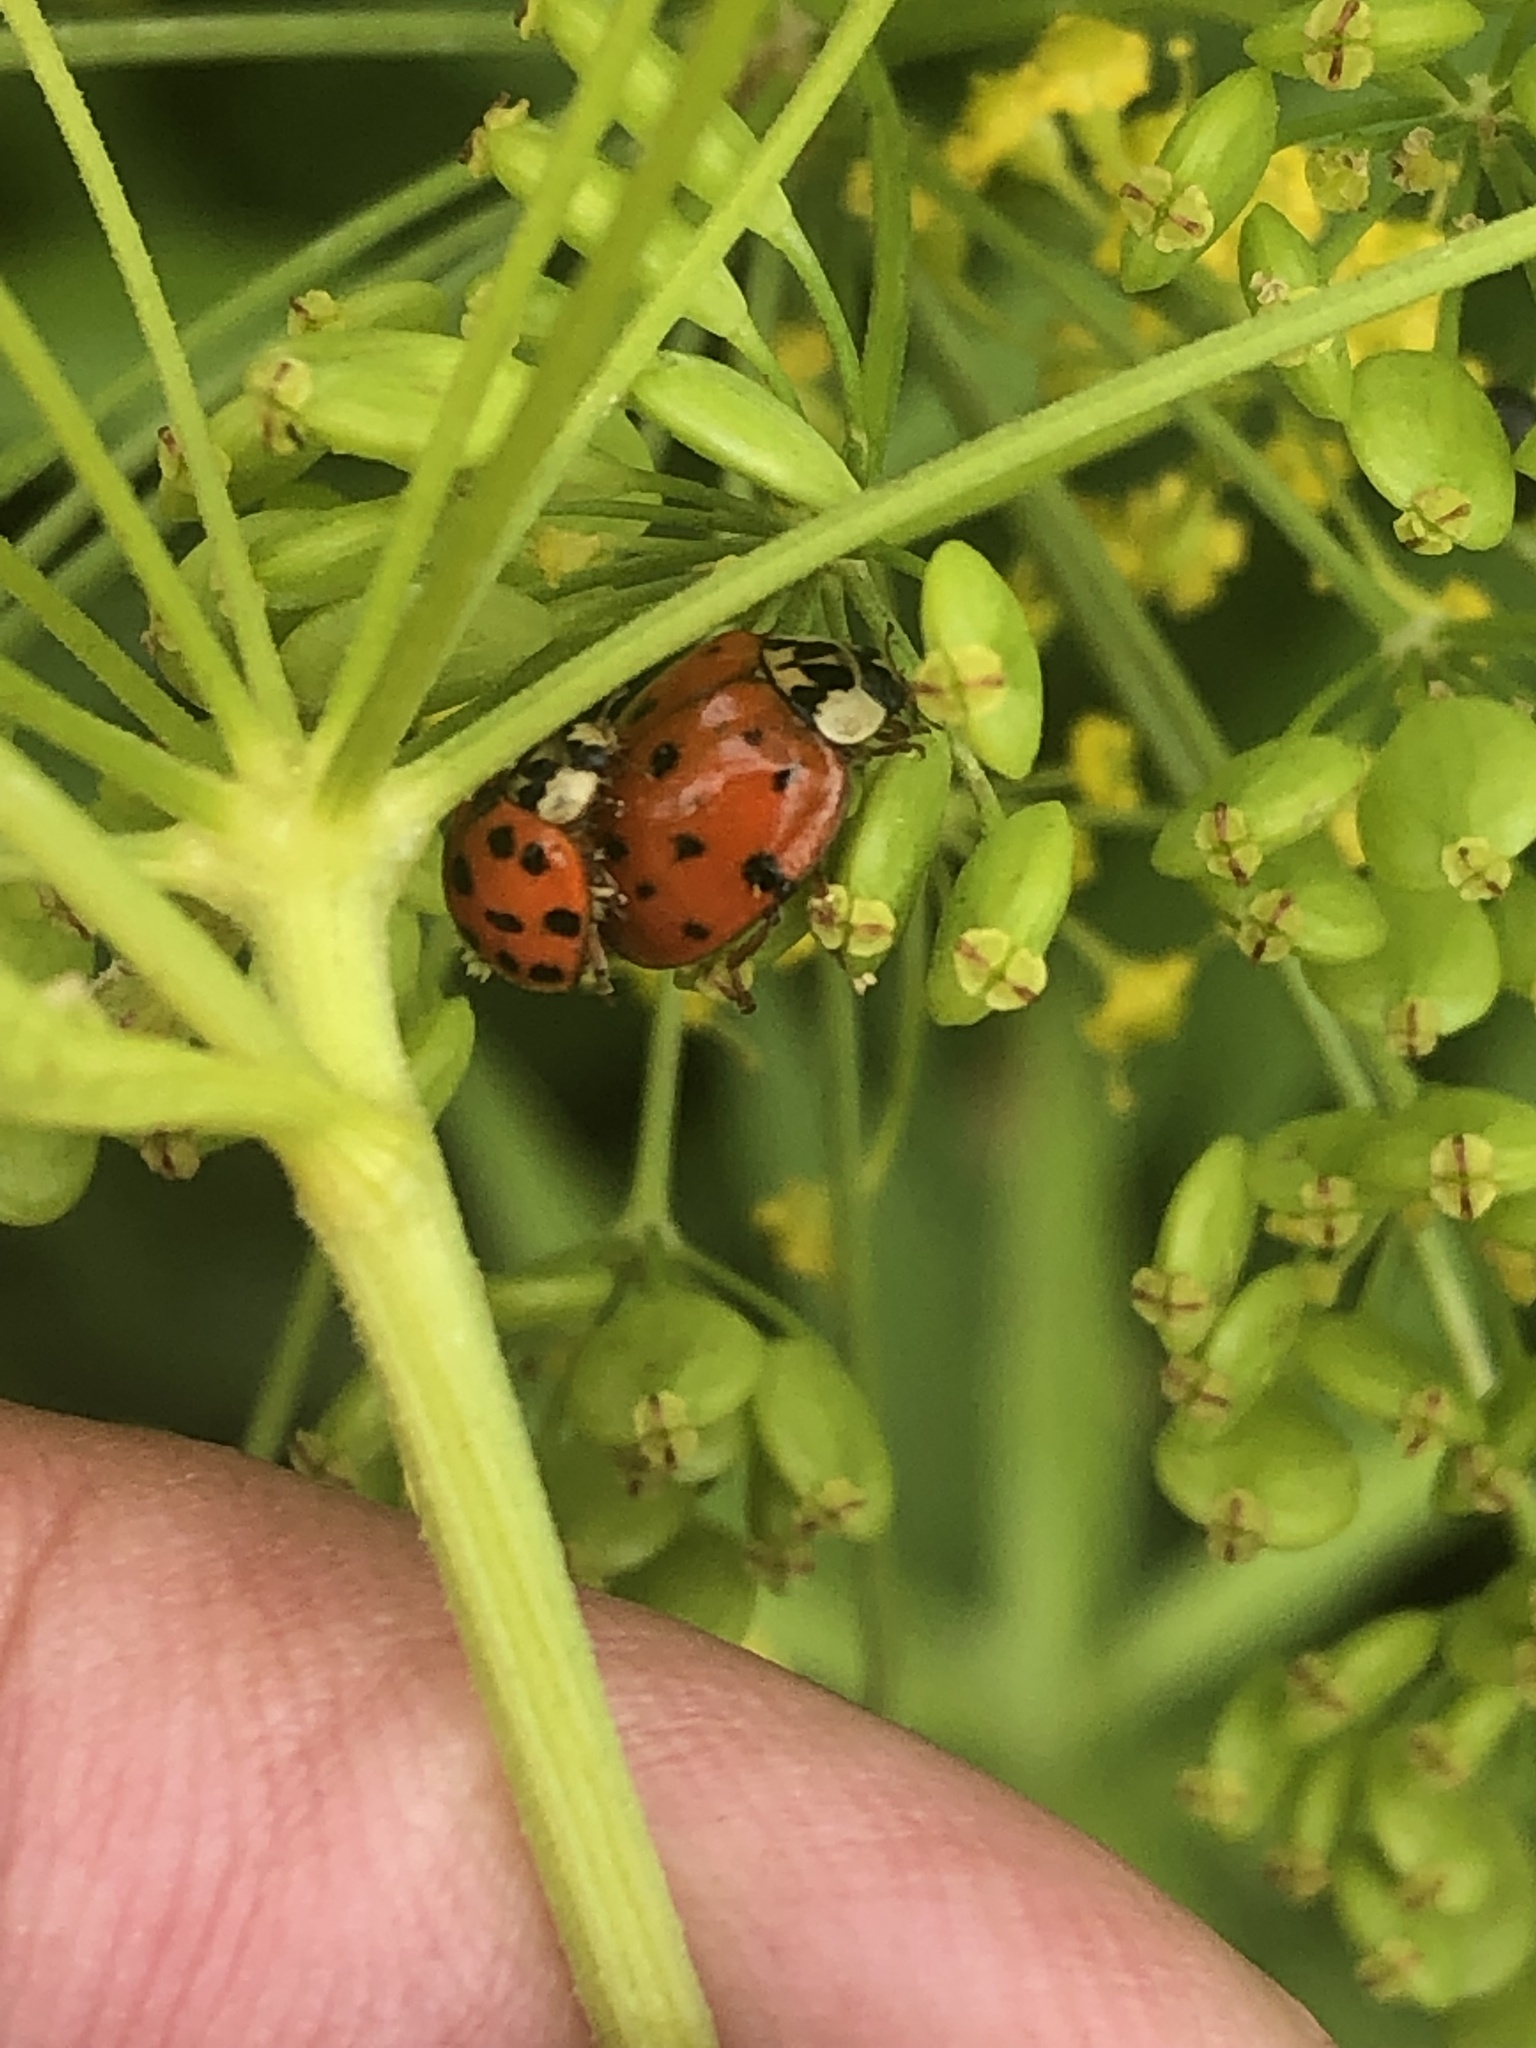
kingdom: Animalia
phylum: Arthropoda
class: Insecta
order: Coleoptera
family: Coccinellidae
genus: Harmonia
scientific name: Harmonia axyridis
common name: Harlequin ladybird
